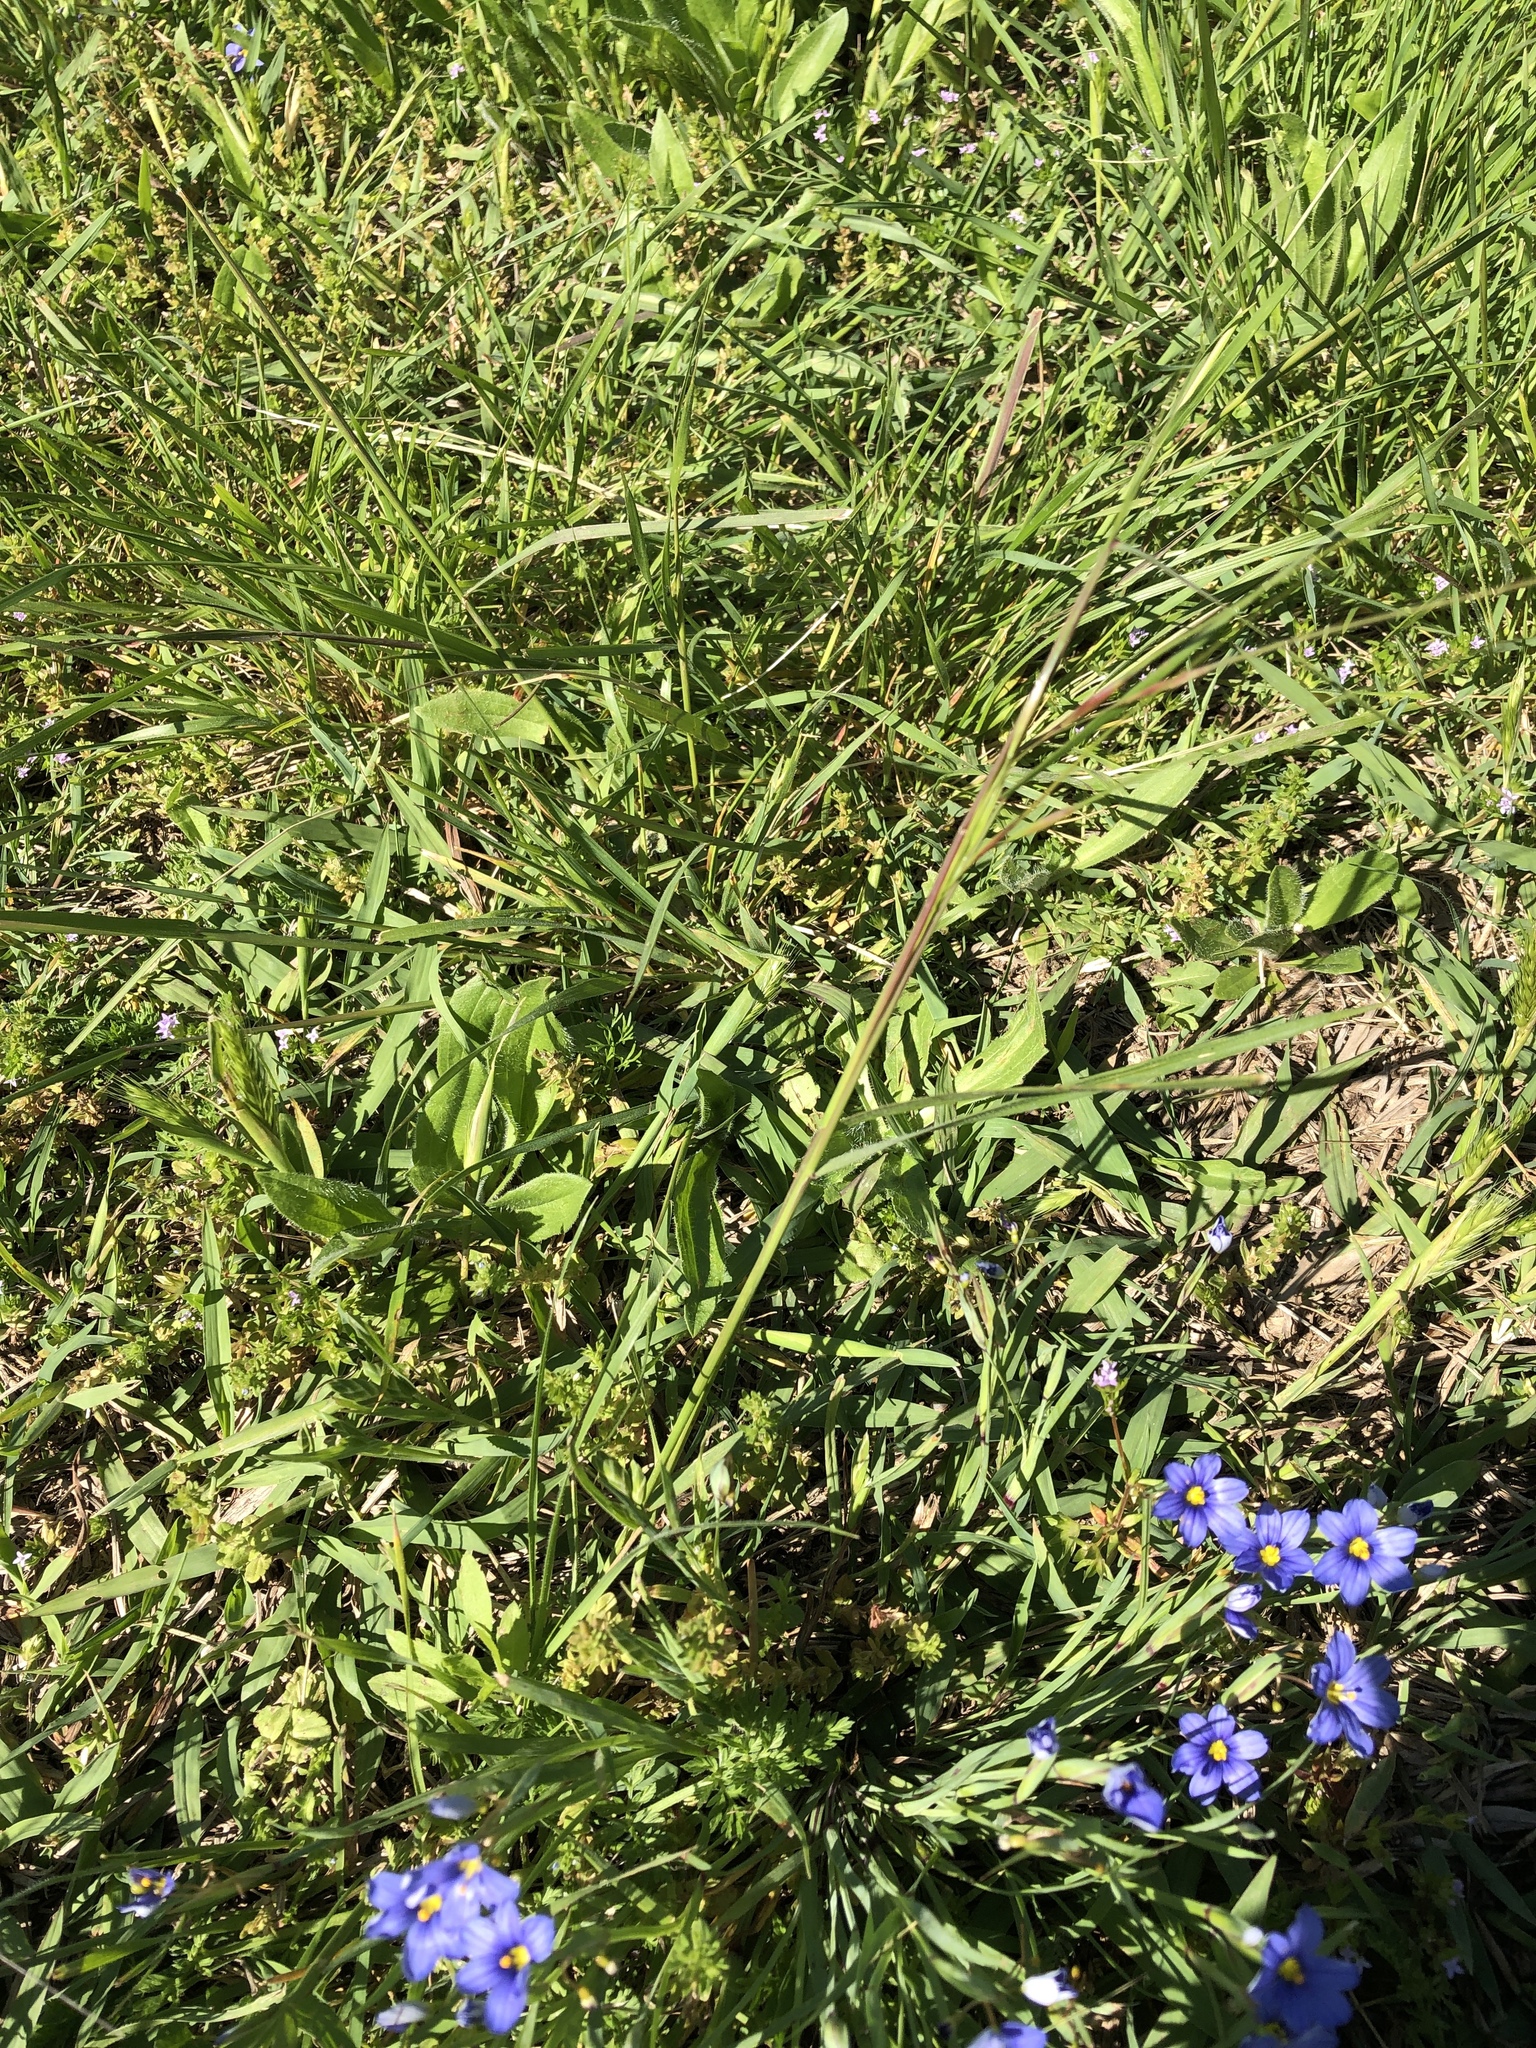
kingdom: Plantae
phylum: Tracheophyta
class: Liliopsida
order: Poales
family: Poaceae
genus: Nassella
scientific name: Nassella leucotricha
